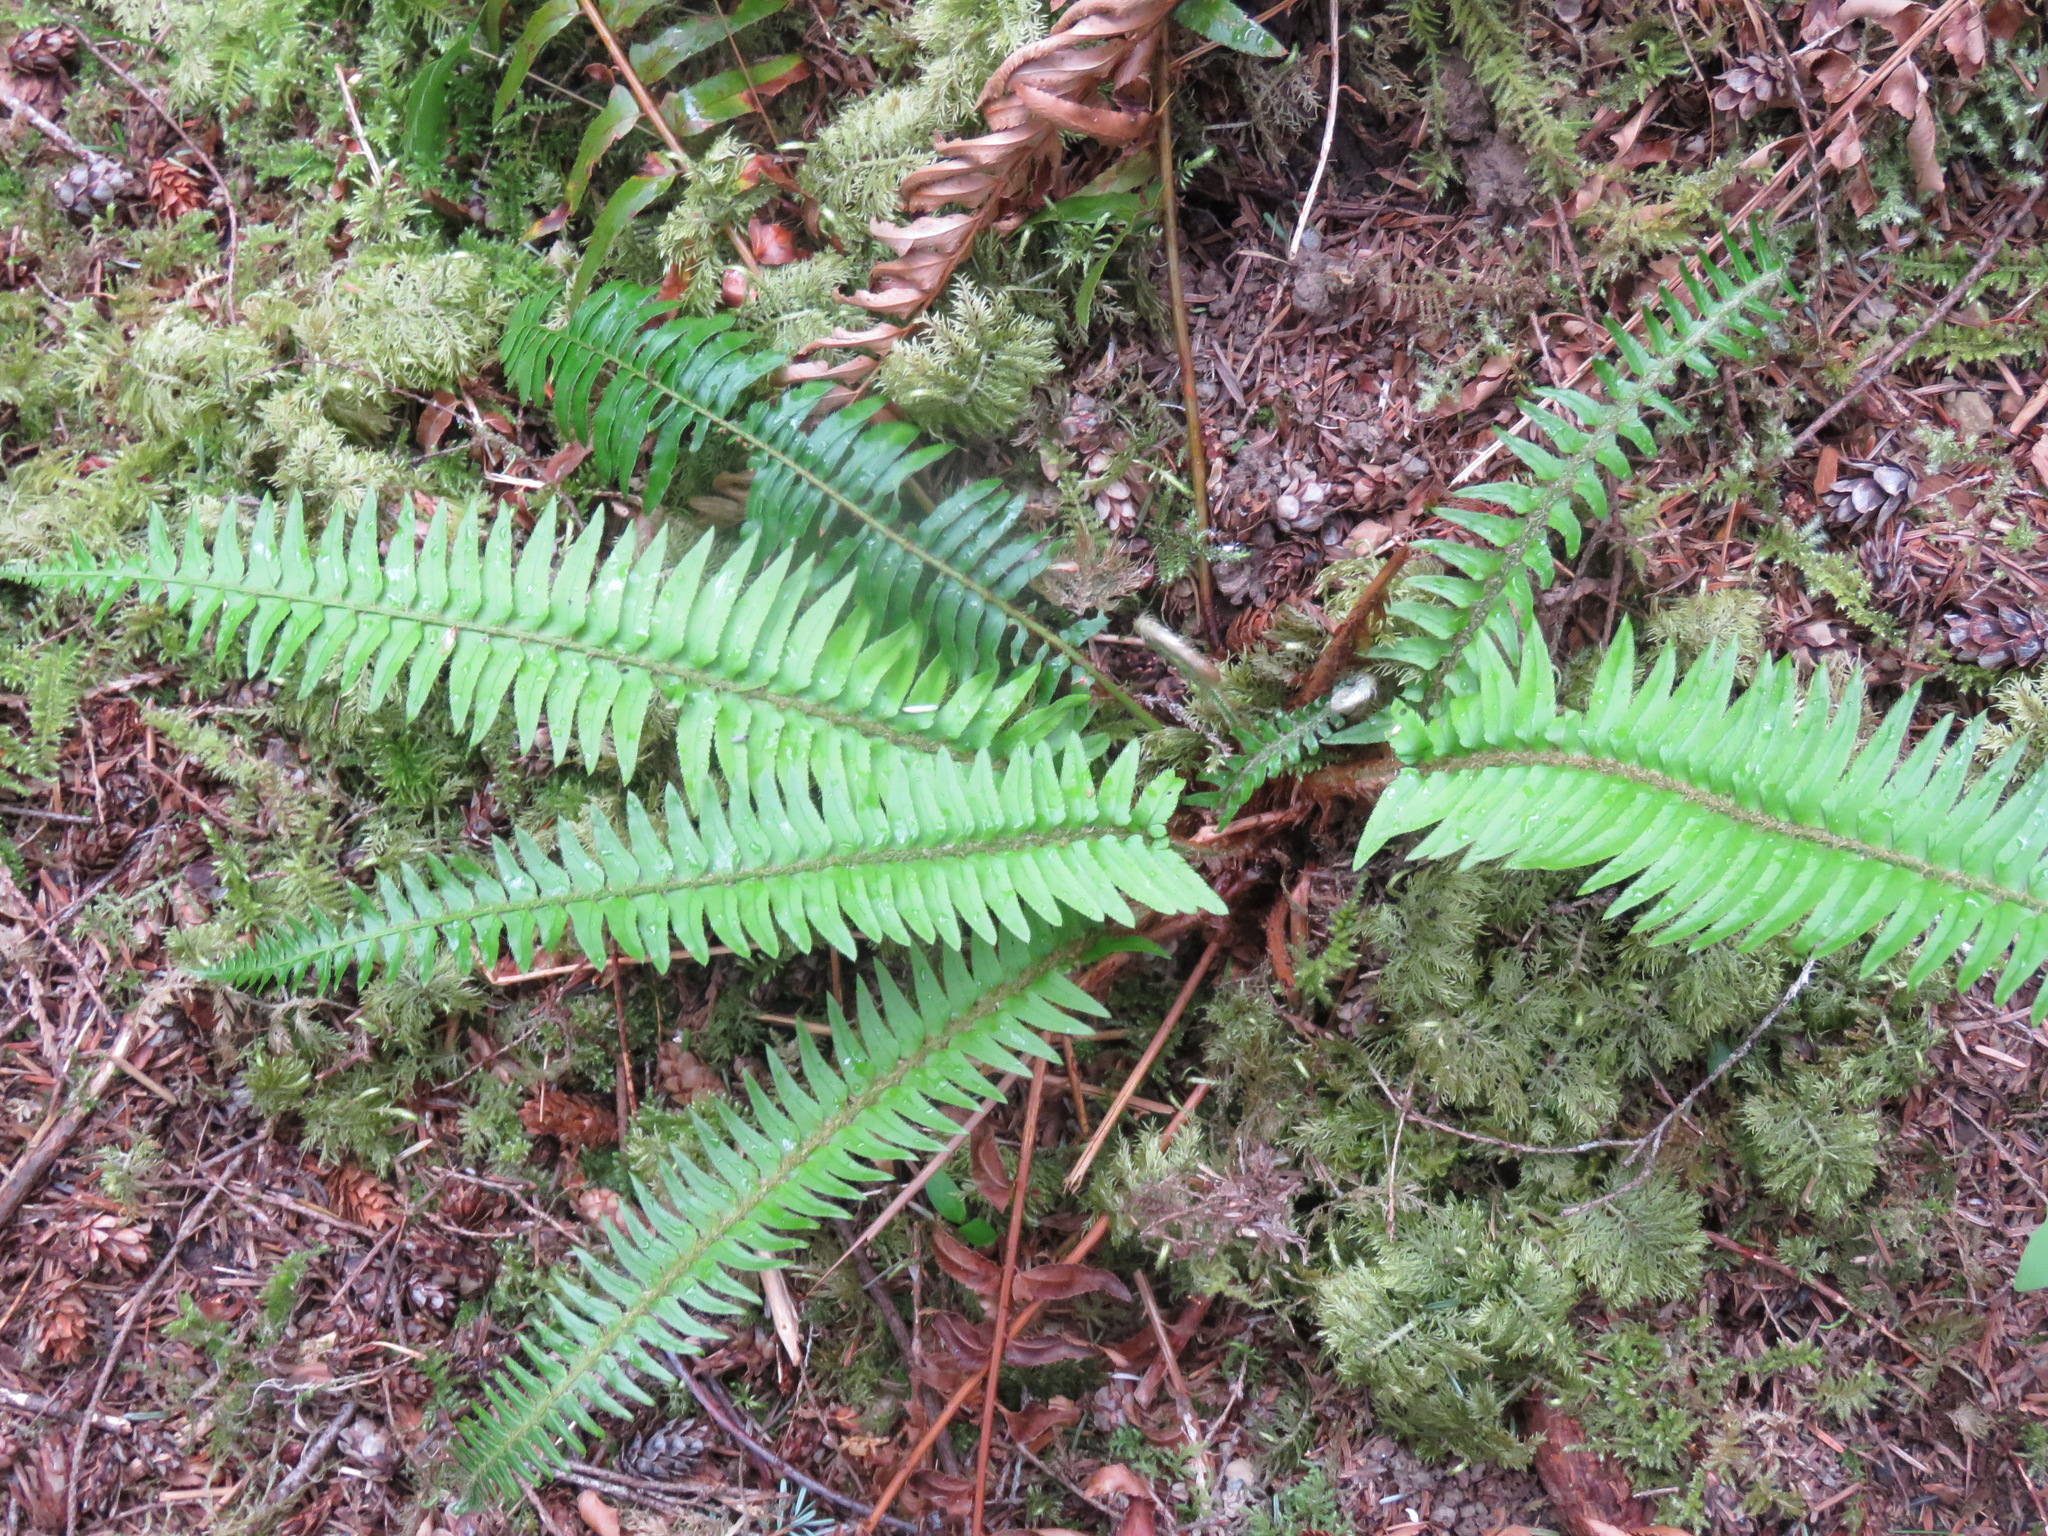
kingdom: Plantae
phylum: Tracheophyta
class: Polypodiopsida
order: Polypodiales
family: Dryopteridaceae
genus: Polystichum
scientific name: Polystichum munitum
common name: Western sword-fern
